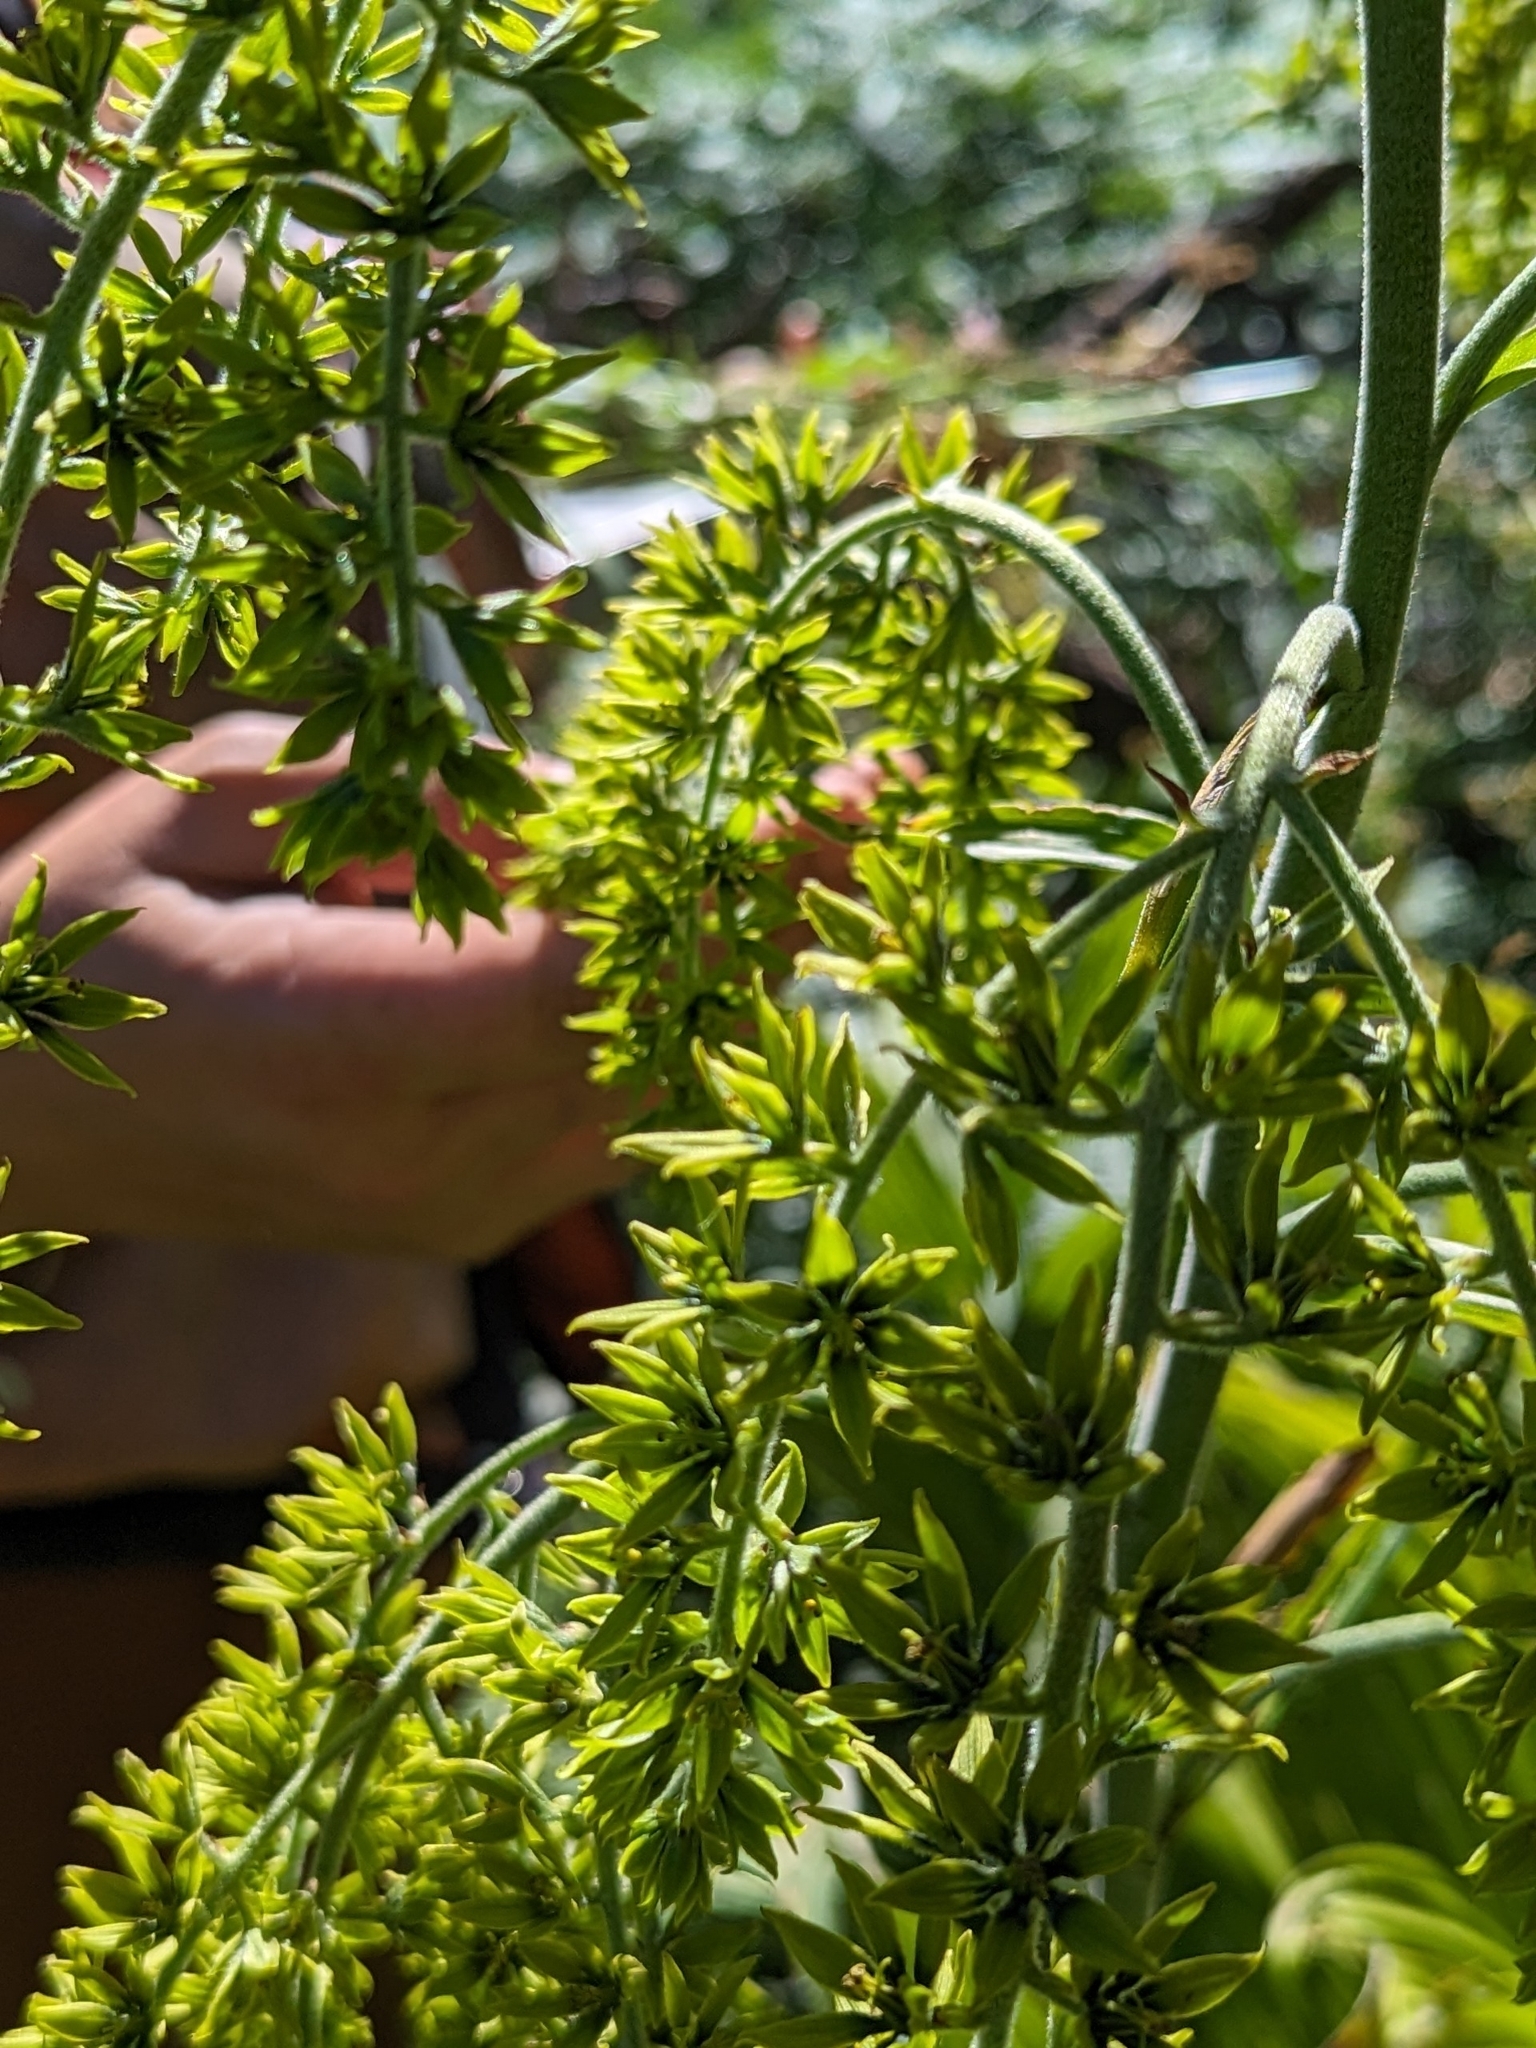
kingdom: Plantae
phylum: Tracheophyta
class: Liliopsida
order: Liliales
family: Melanthiaceae
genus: Veratrum
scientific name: Veratrum viride
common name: American false hellebore
